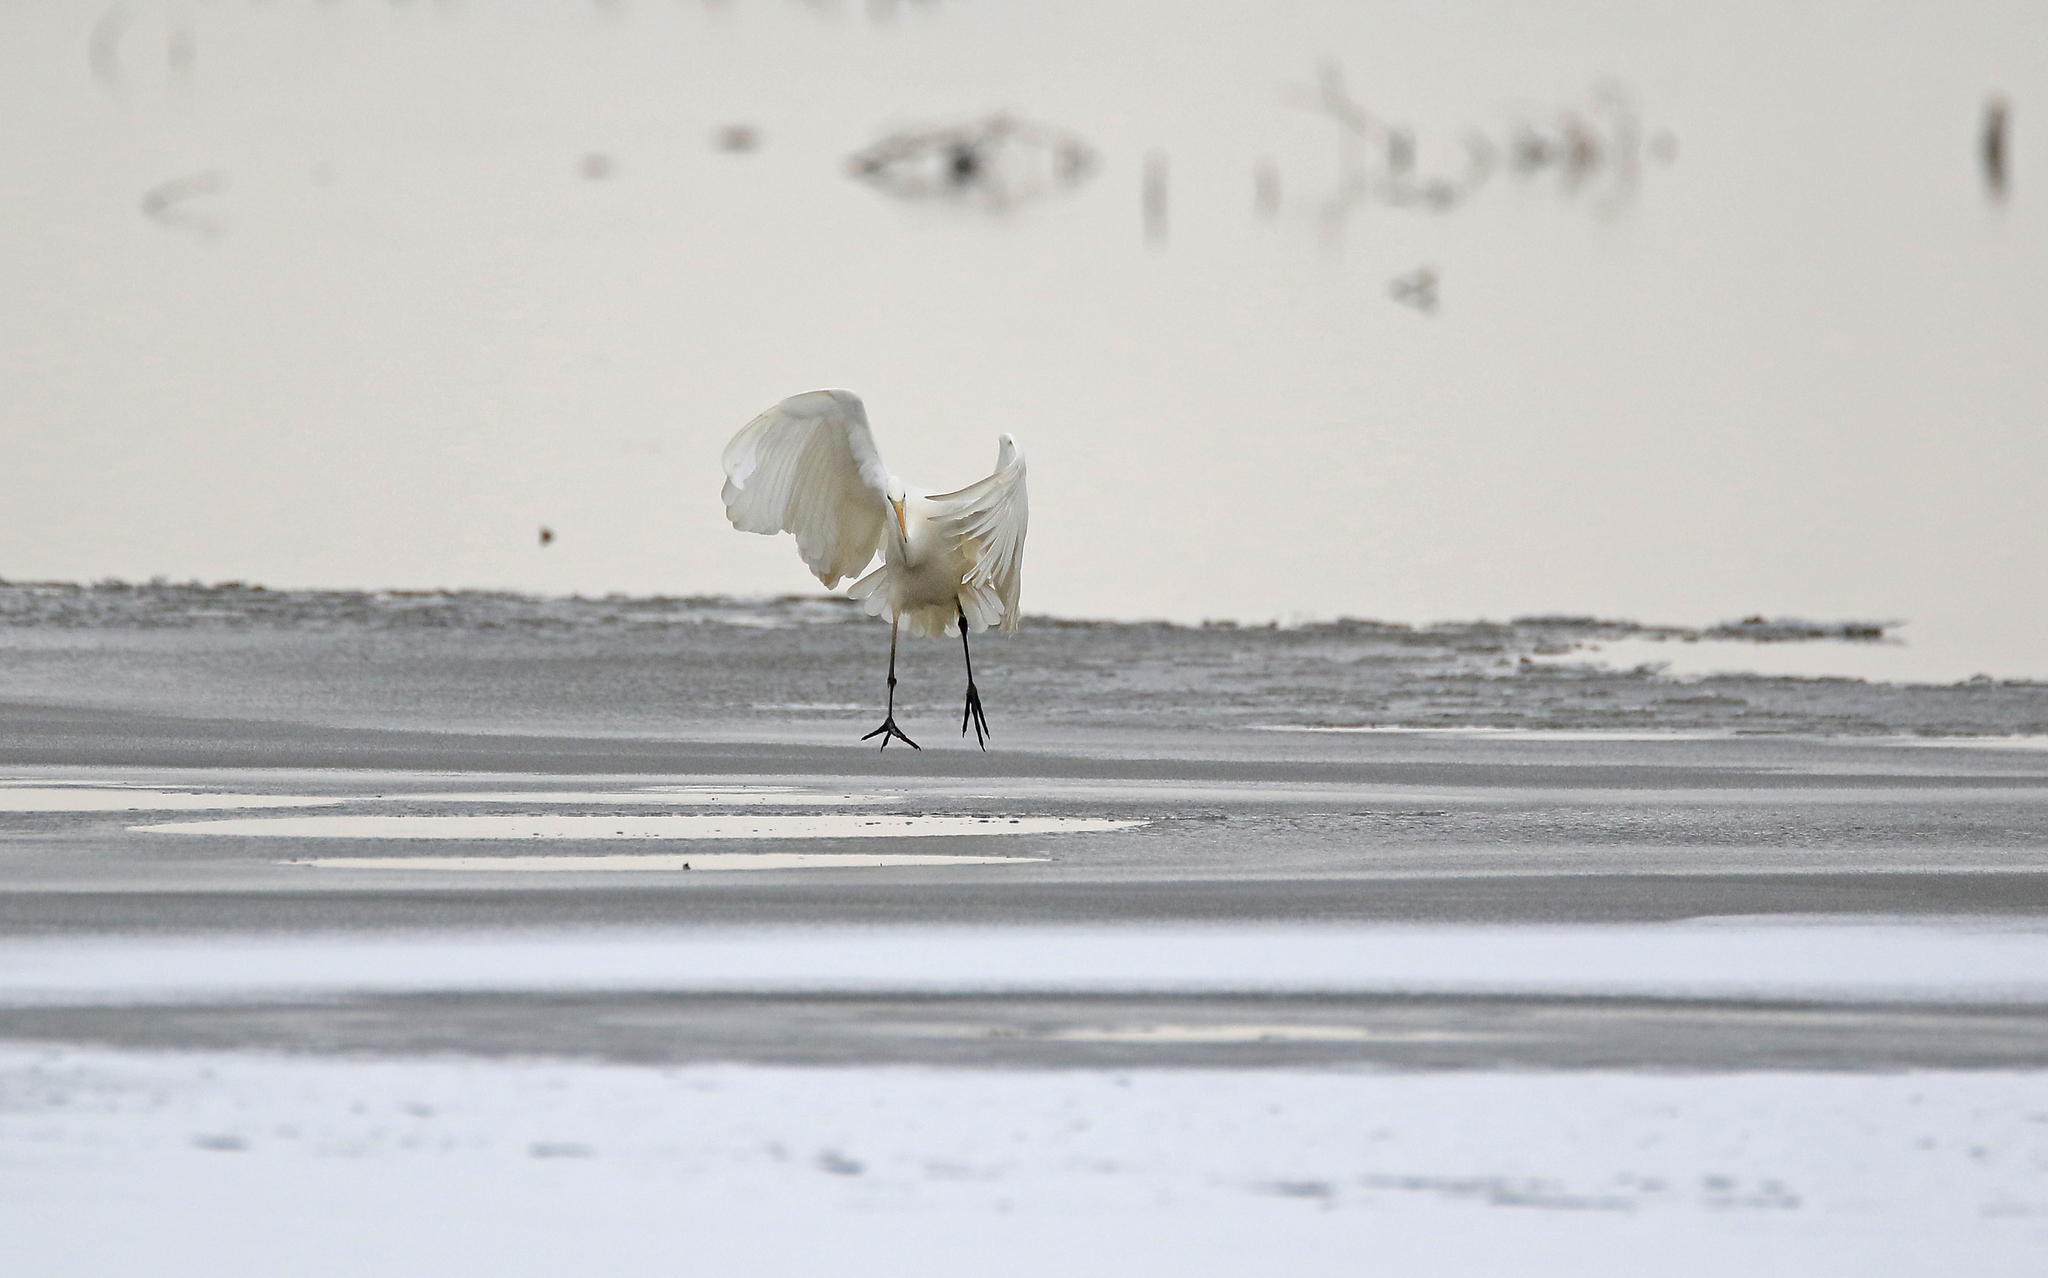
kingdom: Animalia
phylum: Chordata
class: Aves
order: Pelecaniformes
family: Ardeidae
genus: Ardea
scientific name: Ardea alba
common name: Great egret
